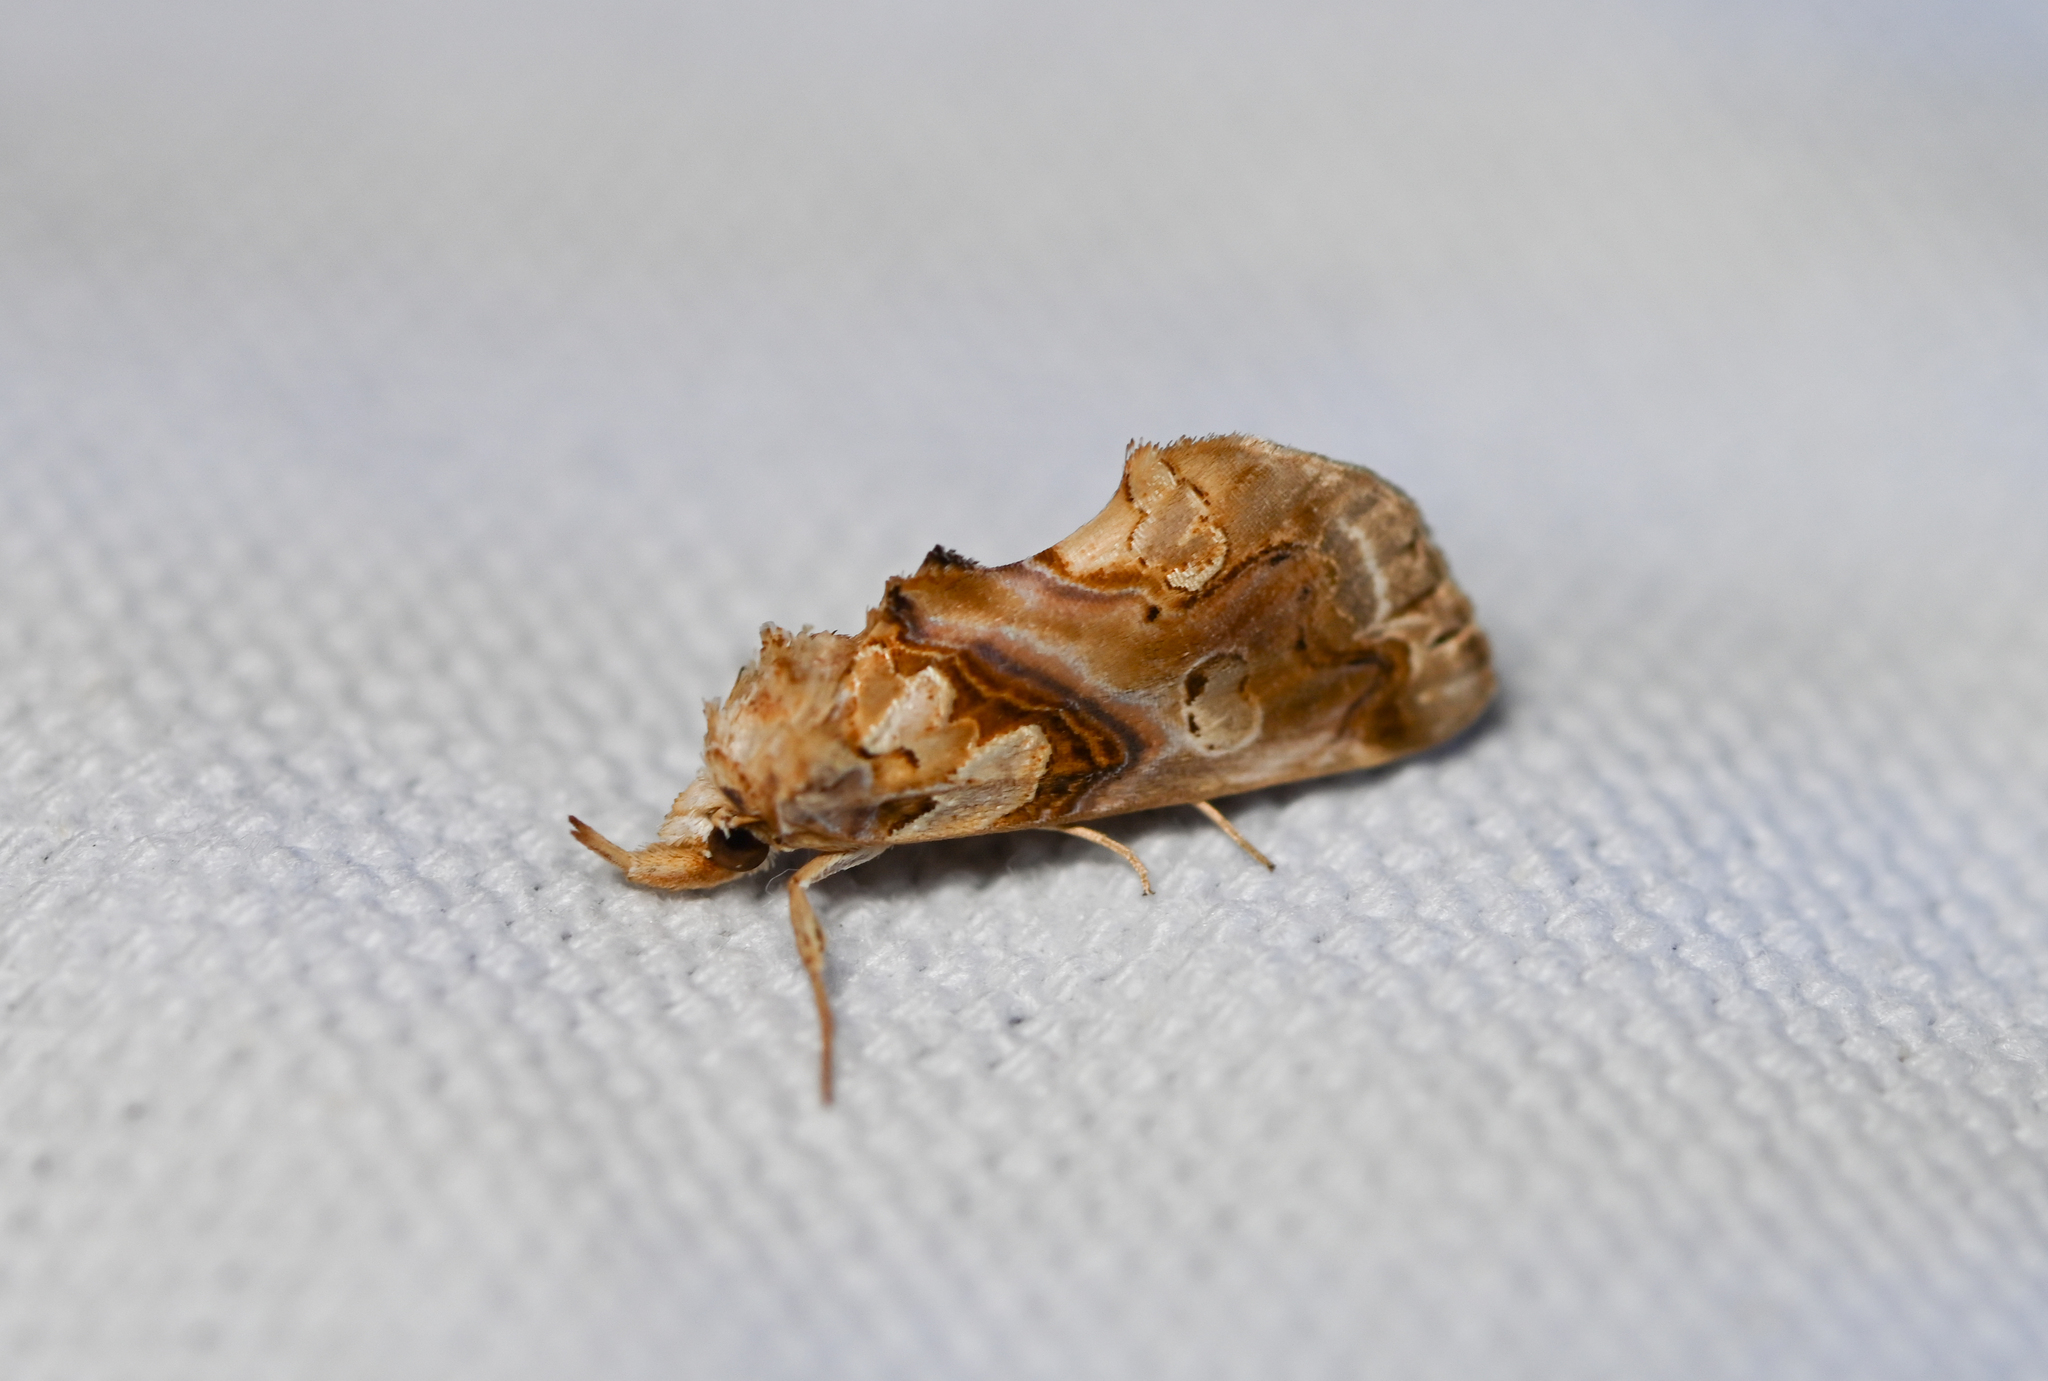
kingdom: Animalia
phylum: Arthropoda
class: Insecta
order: Lepidoptera
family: Erebidae
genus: Plusiodonta
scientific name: Plusiodonta compressipalpis
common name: Moonseed moth
